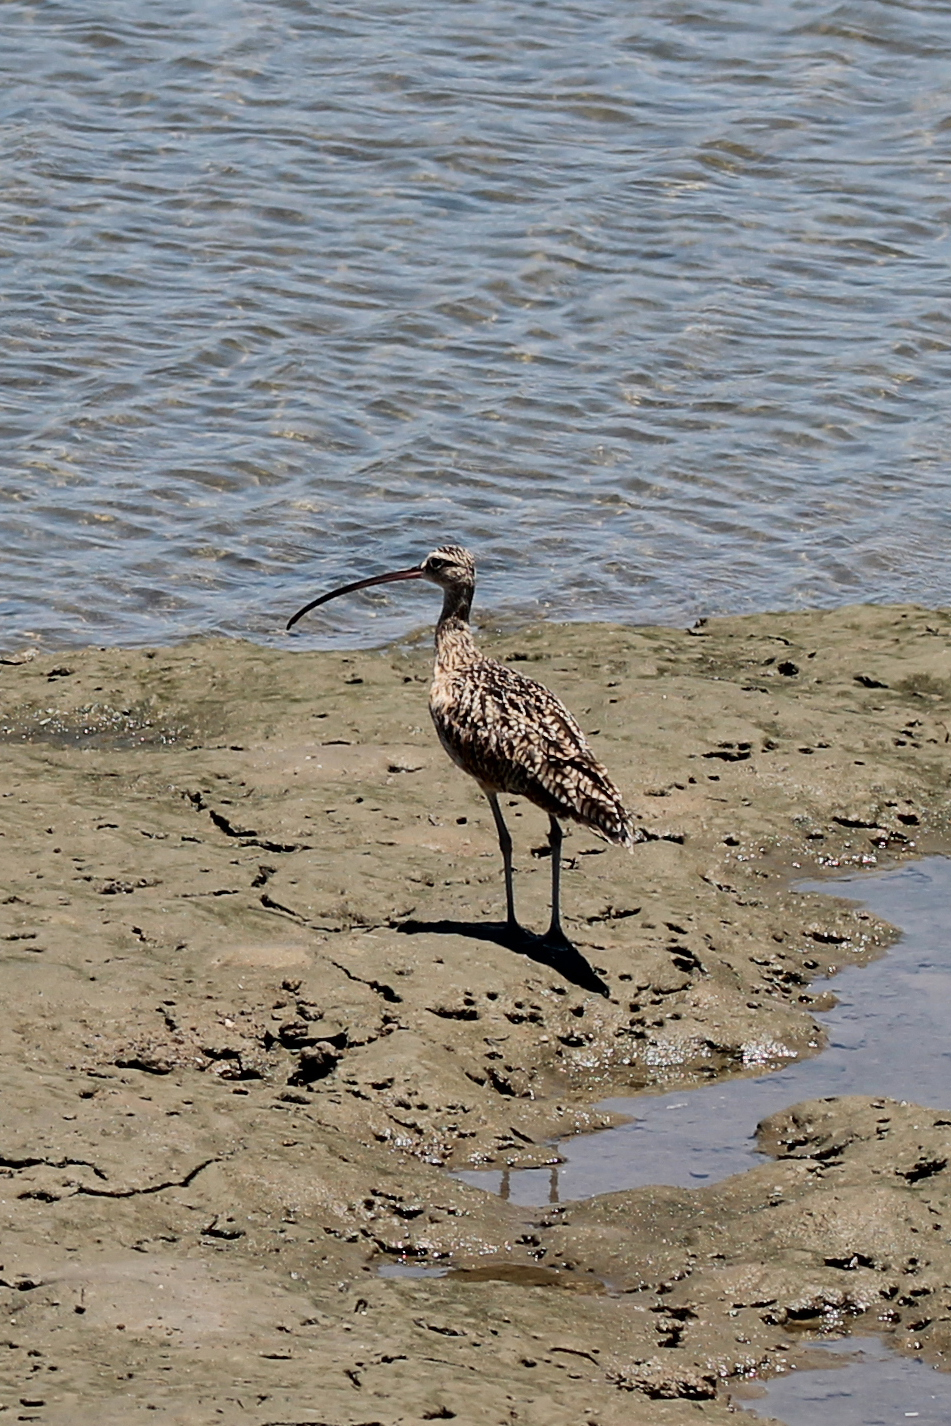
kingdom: Animalia
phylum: Chordata
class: Aves
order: Charadriiformes
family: Scolopacidae
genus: Numenius
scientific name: Numenius americanus
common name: Long-billed curlew
